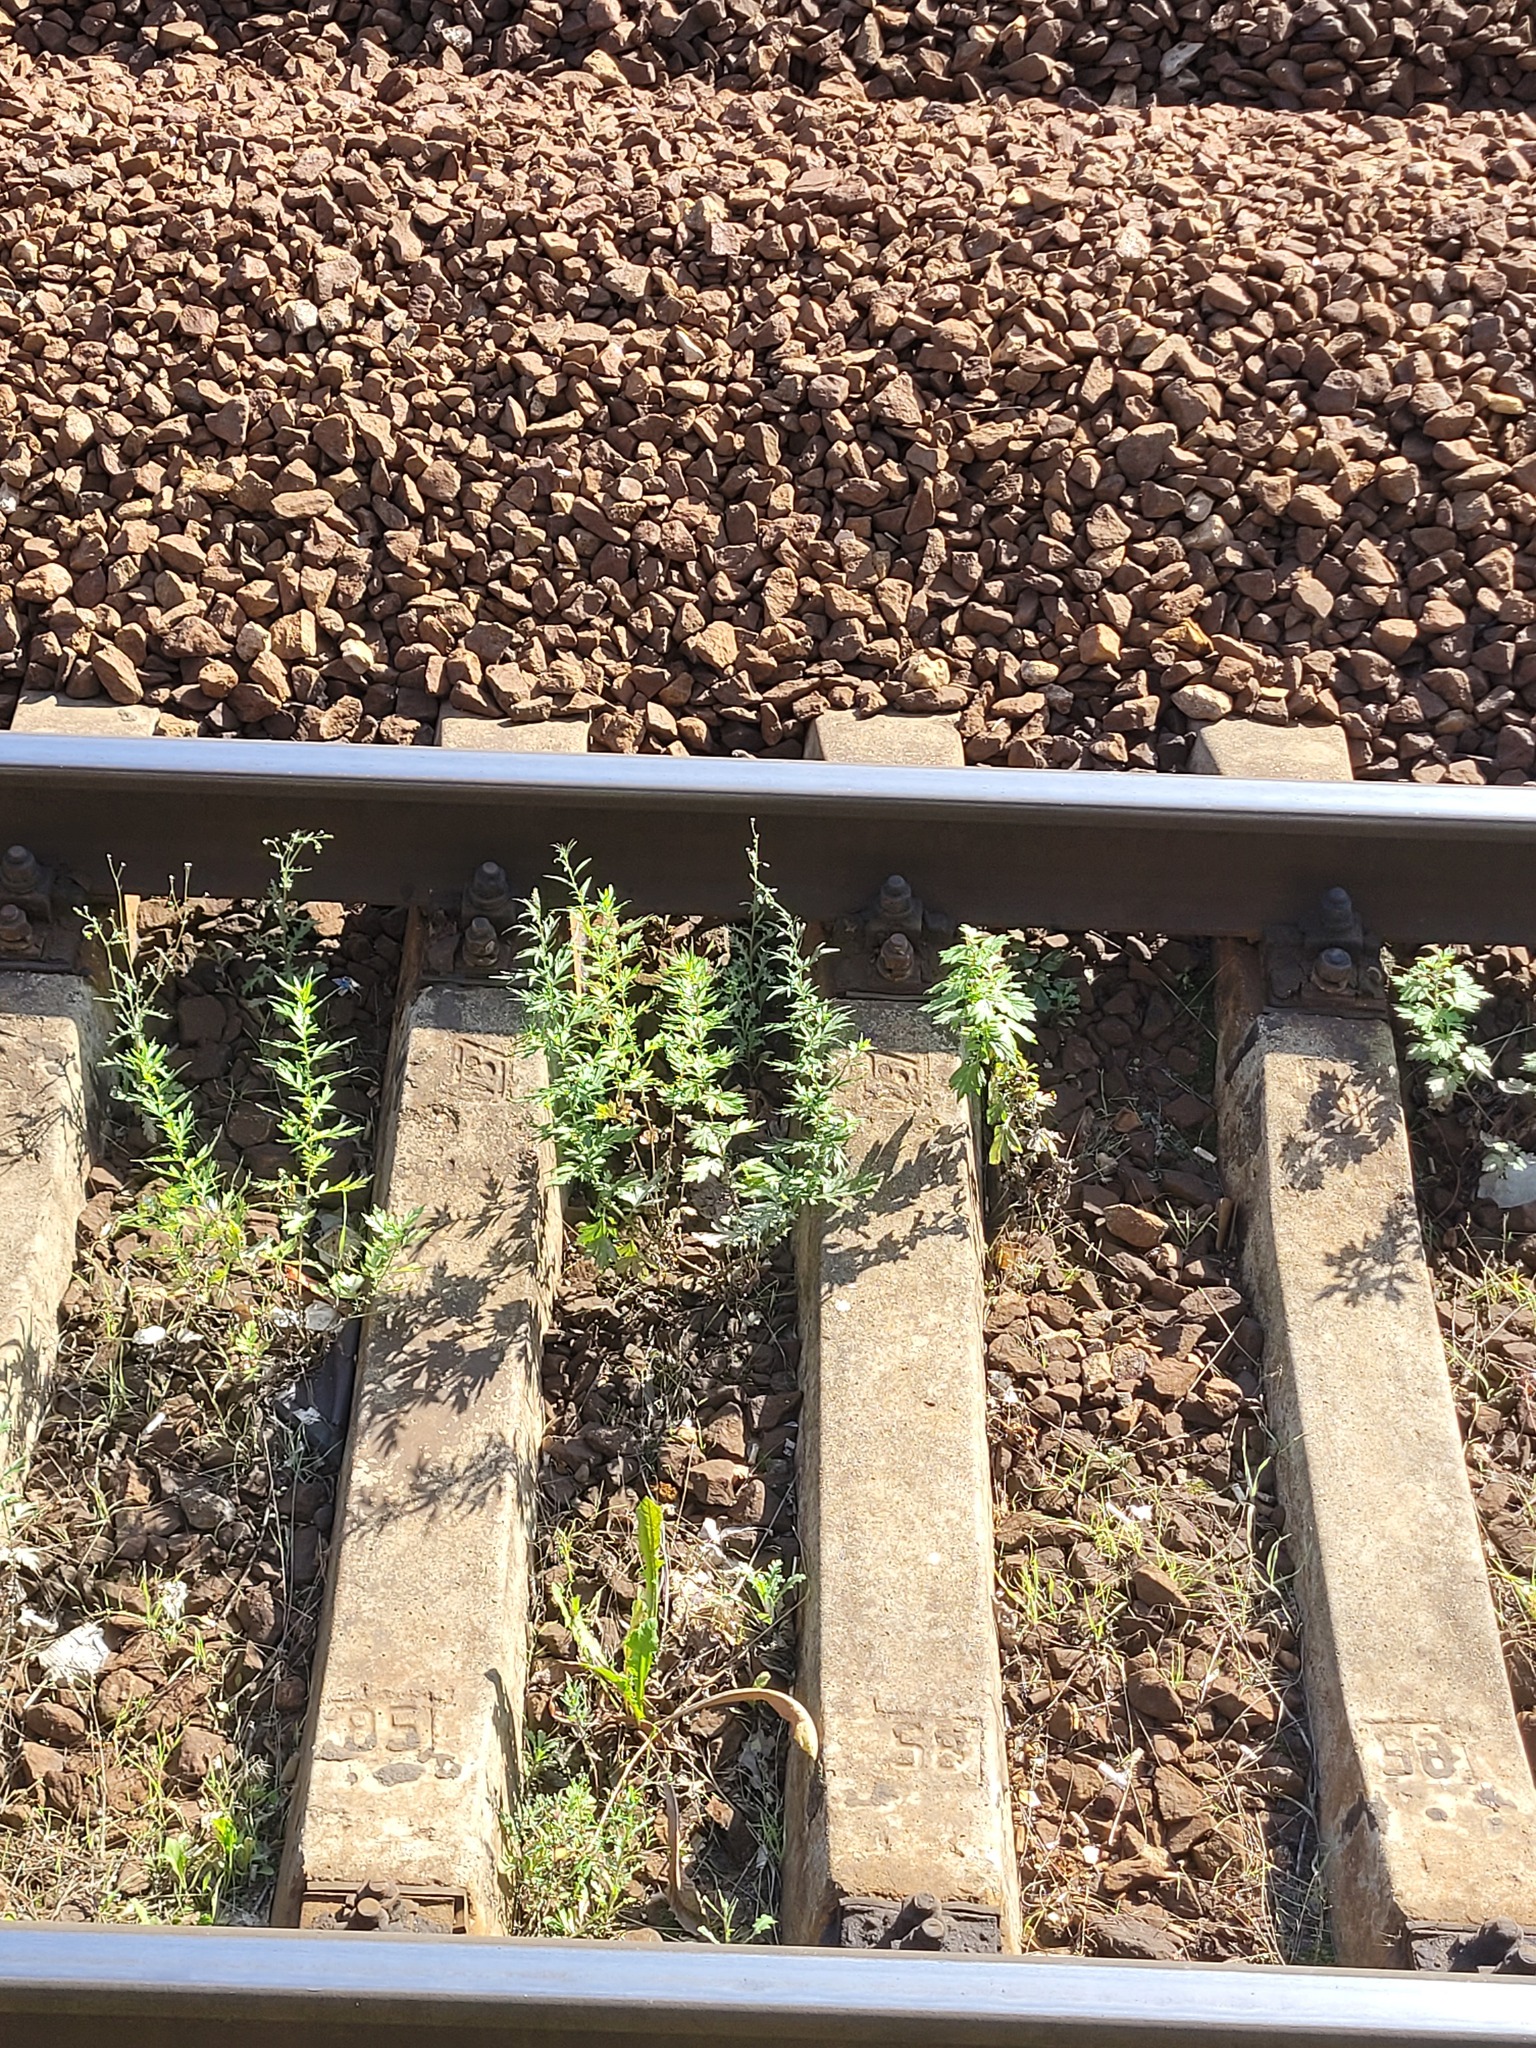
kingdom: Plantae
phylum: Tracheophyta
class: Magnoliopsida
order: Asterales
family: Asteraceae
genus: Artemisia
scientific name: Artemisia vulgaris
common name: Mugwort
